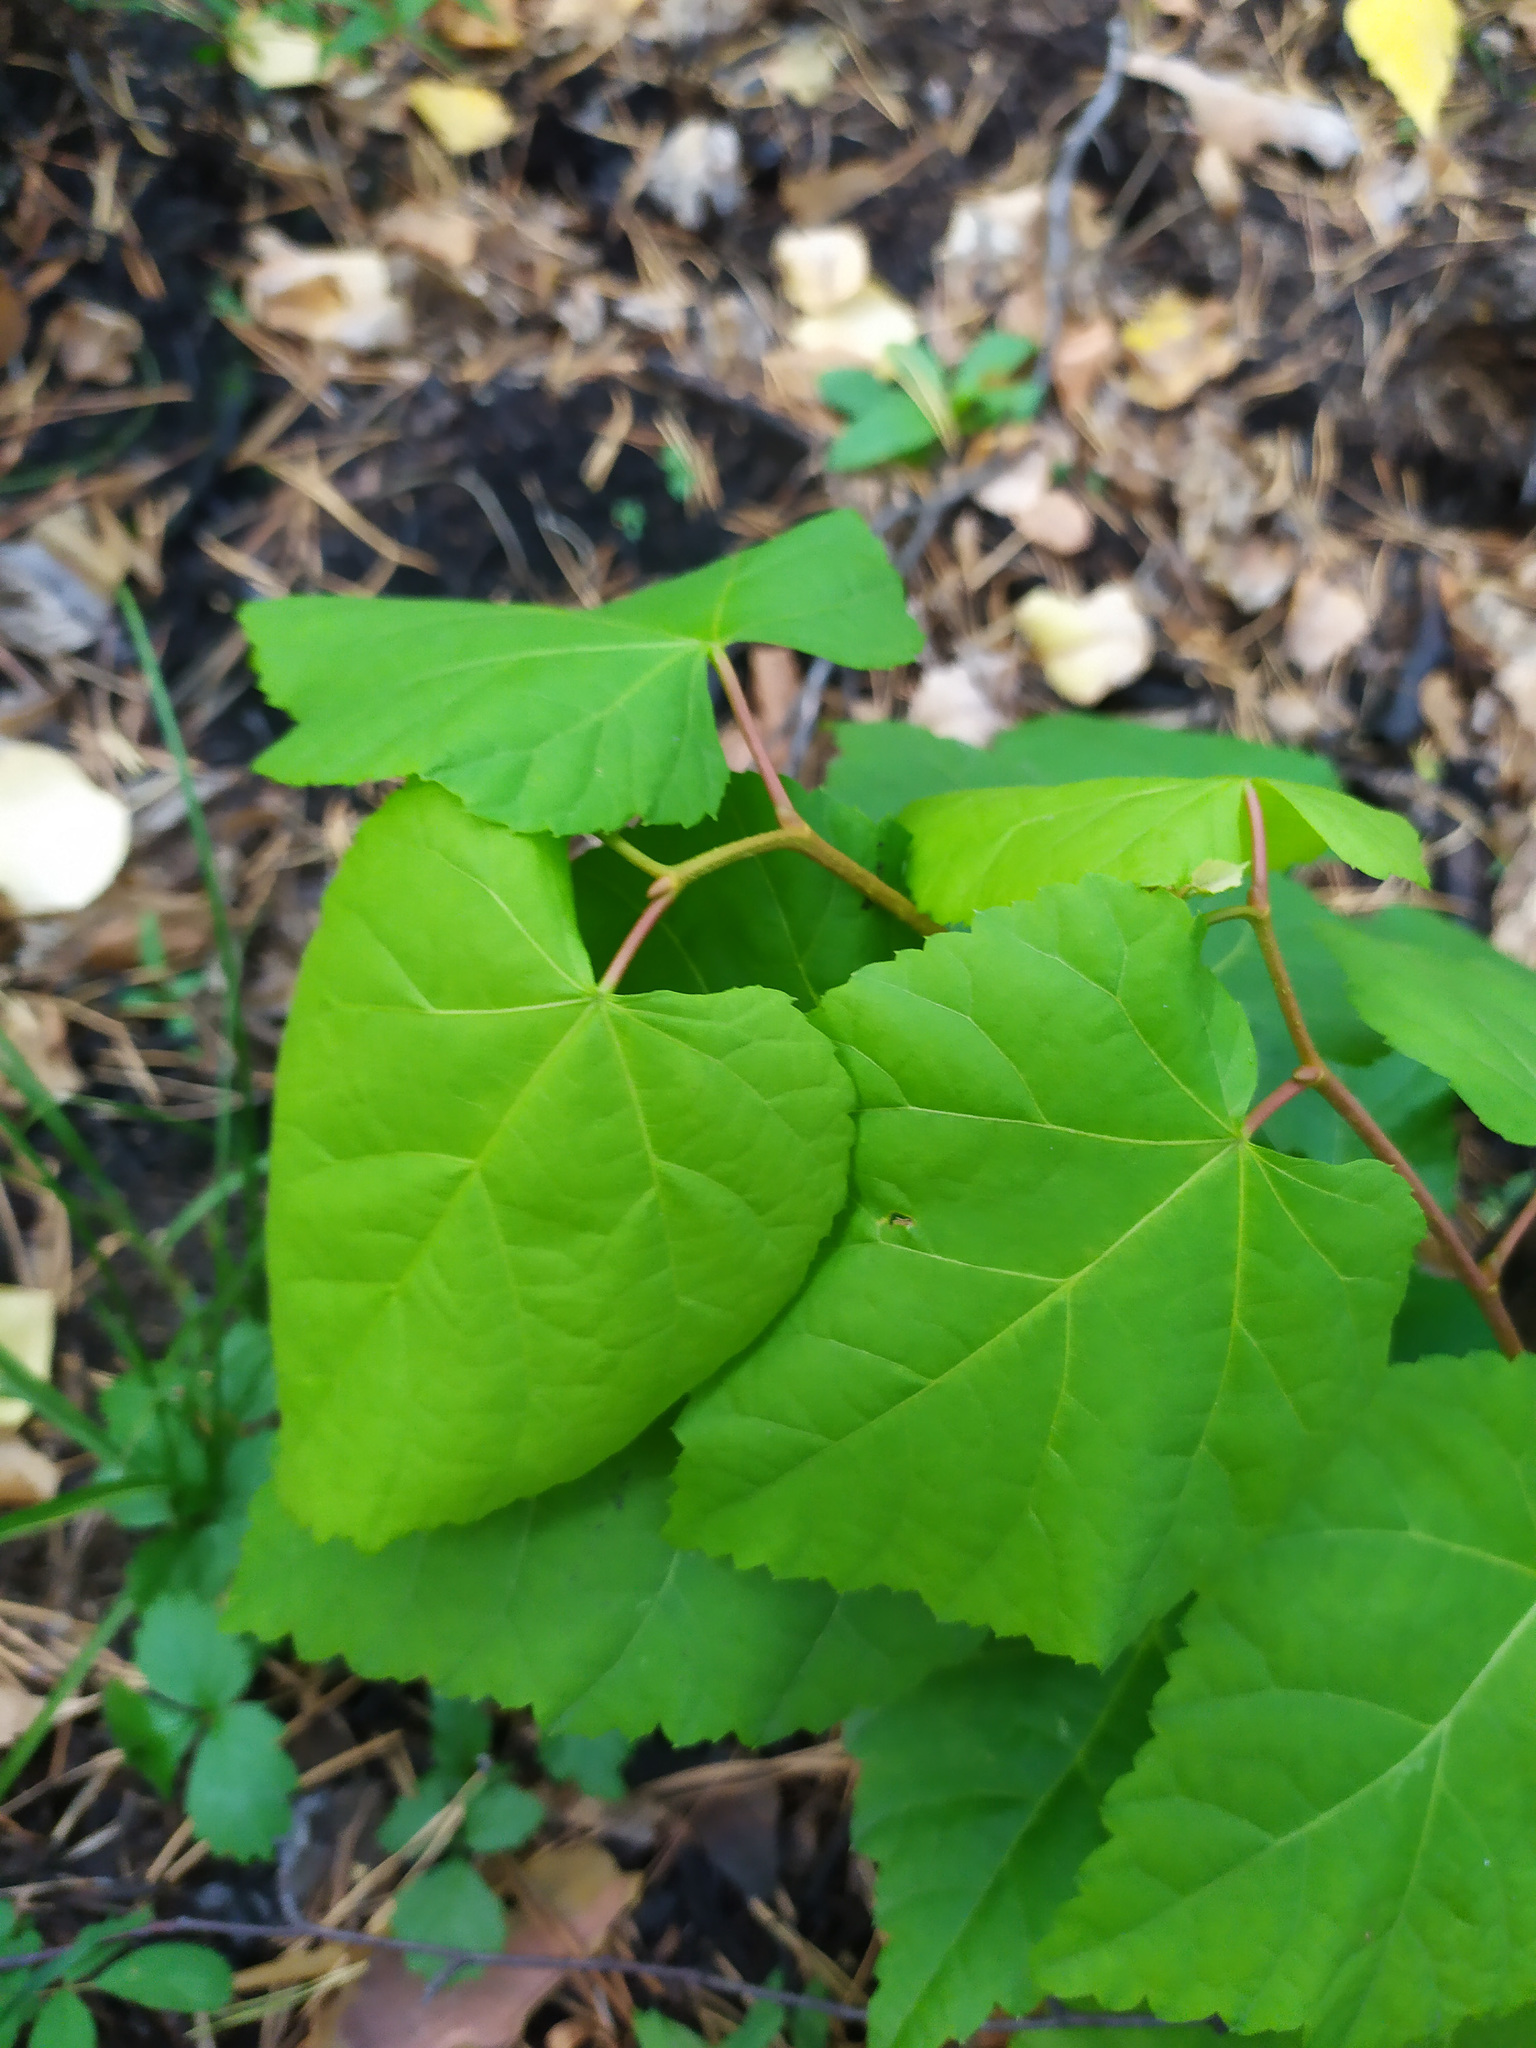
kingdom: Plantae
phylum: Tracheophyta
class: Magnoliopsida
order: Malvales
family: Malvaceae
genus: Tilia
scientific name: Tilia cordata
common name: Small-leaved lime
